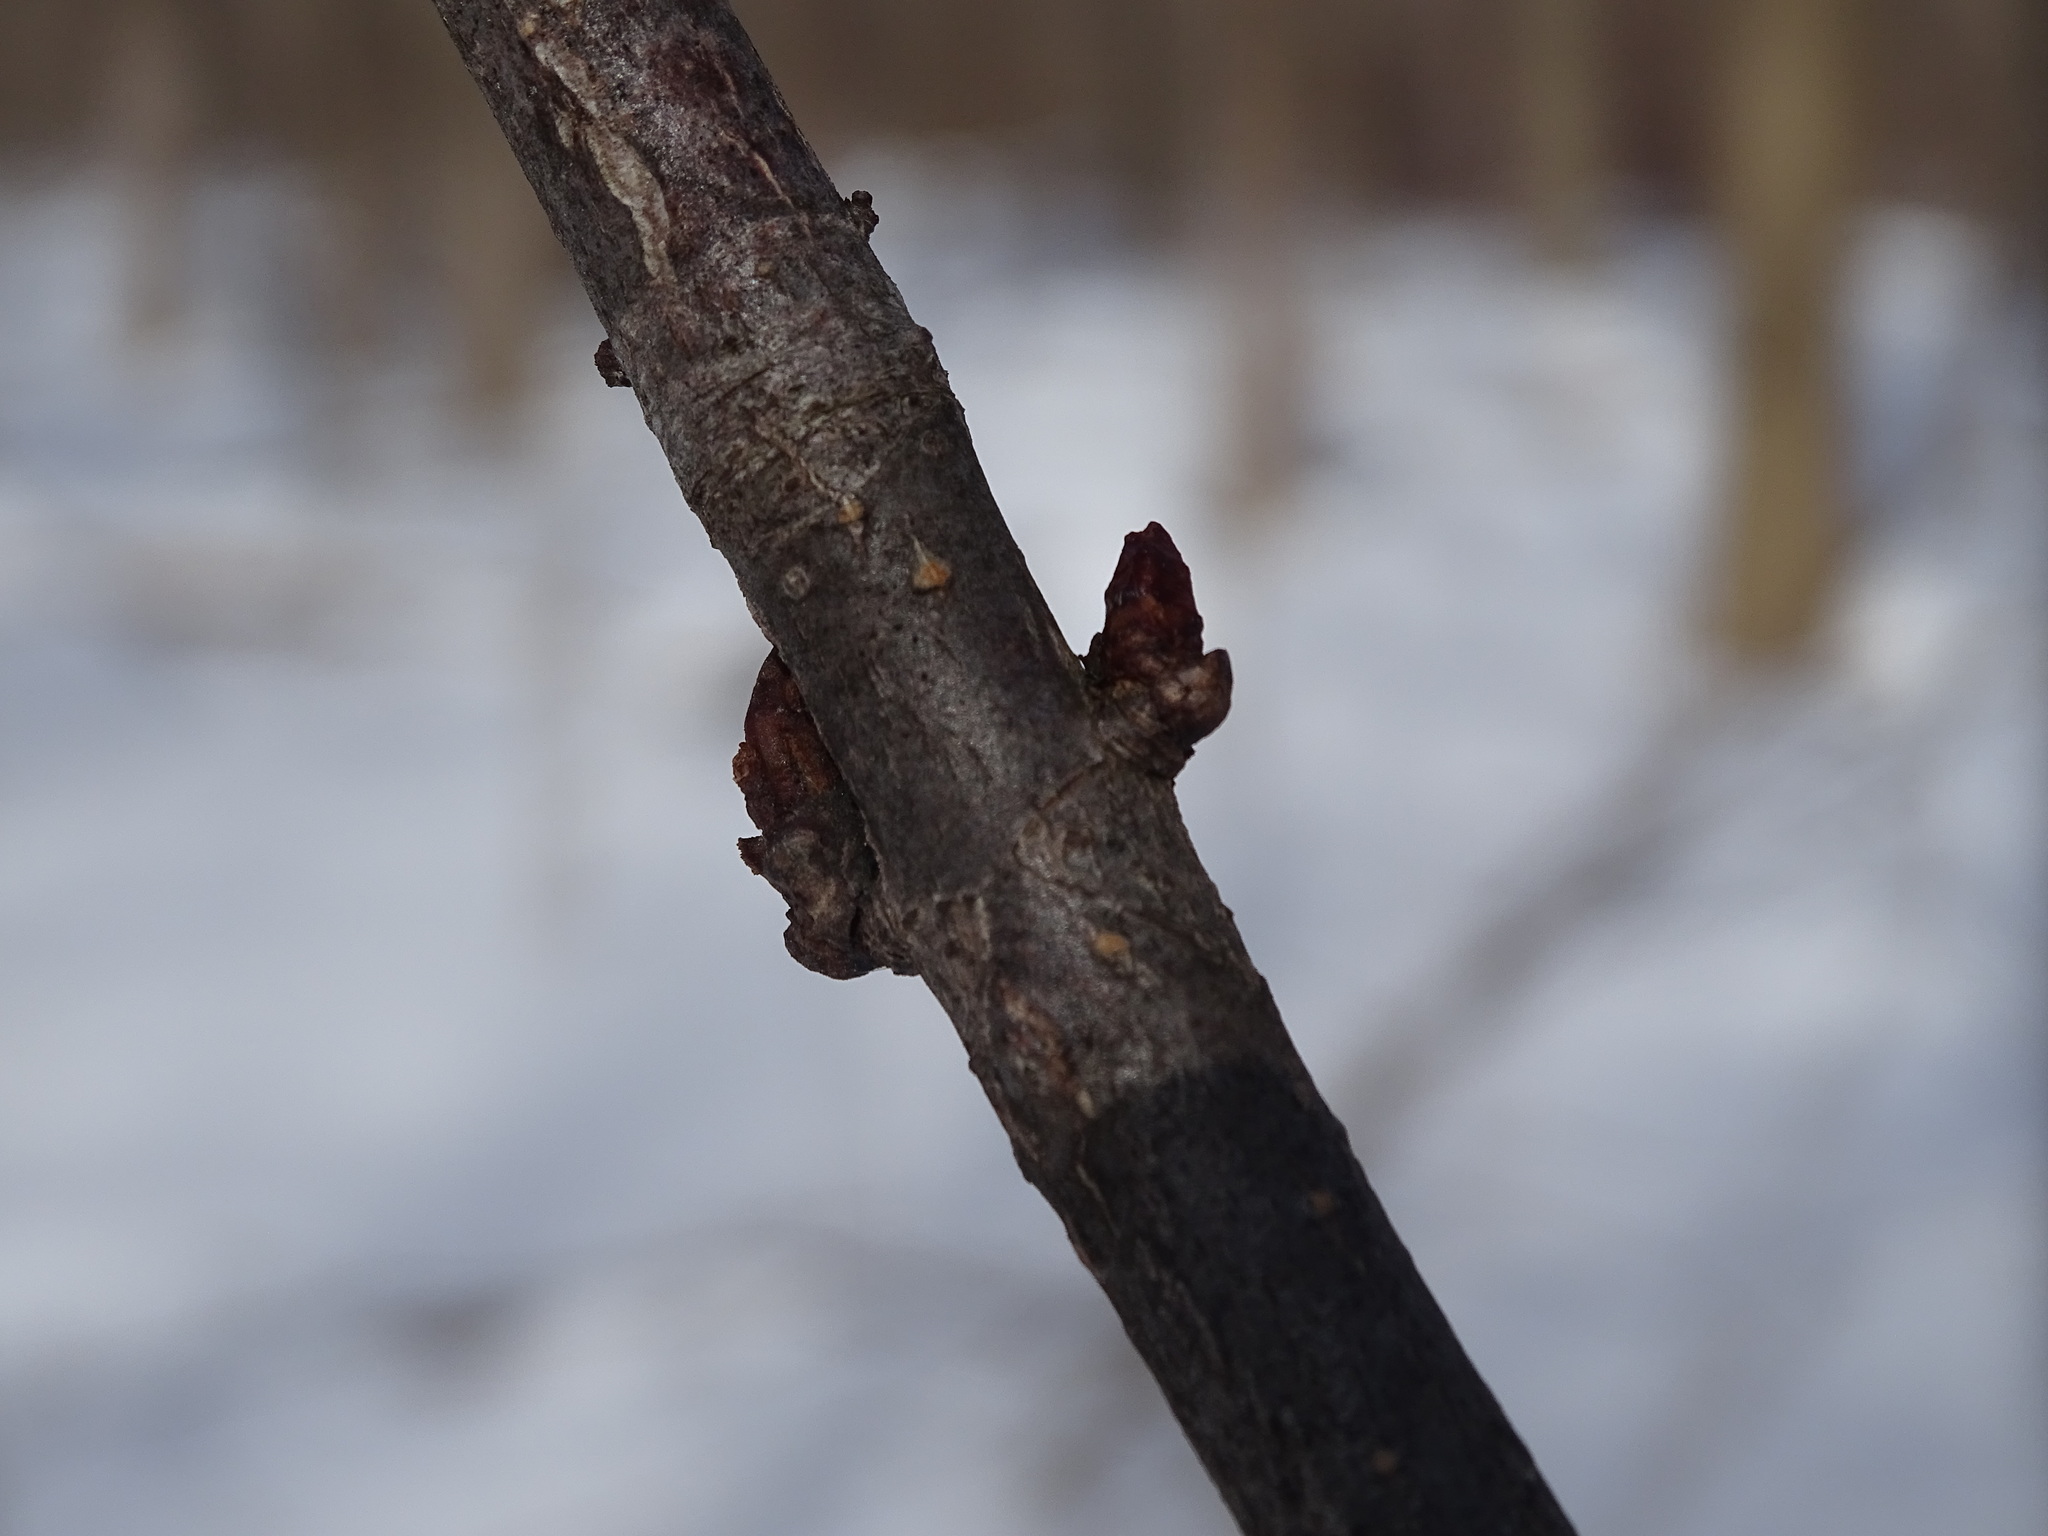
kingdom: Plantae
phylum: Tracheophyta
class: Magnoliopsida
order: Sapindales
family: Sapindaceae
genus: Aesculus
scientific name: Aesculus hippocastanum
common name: Horse-chestnut
